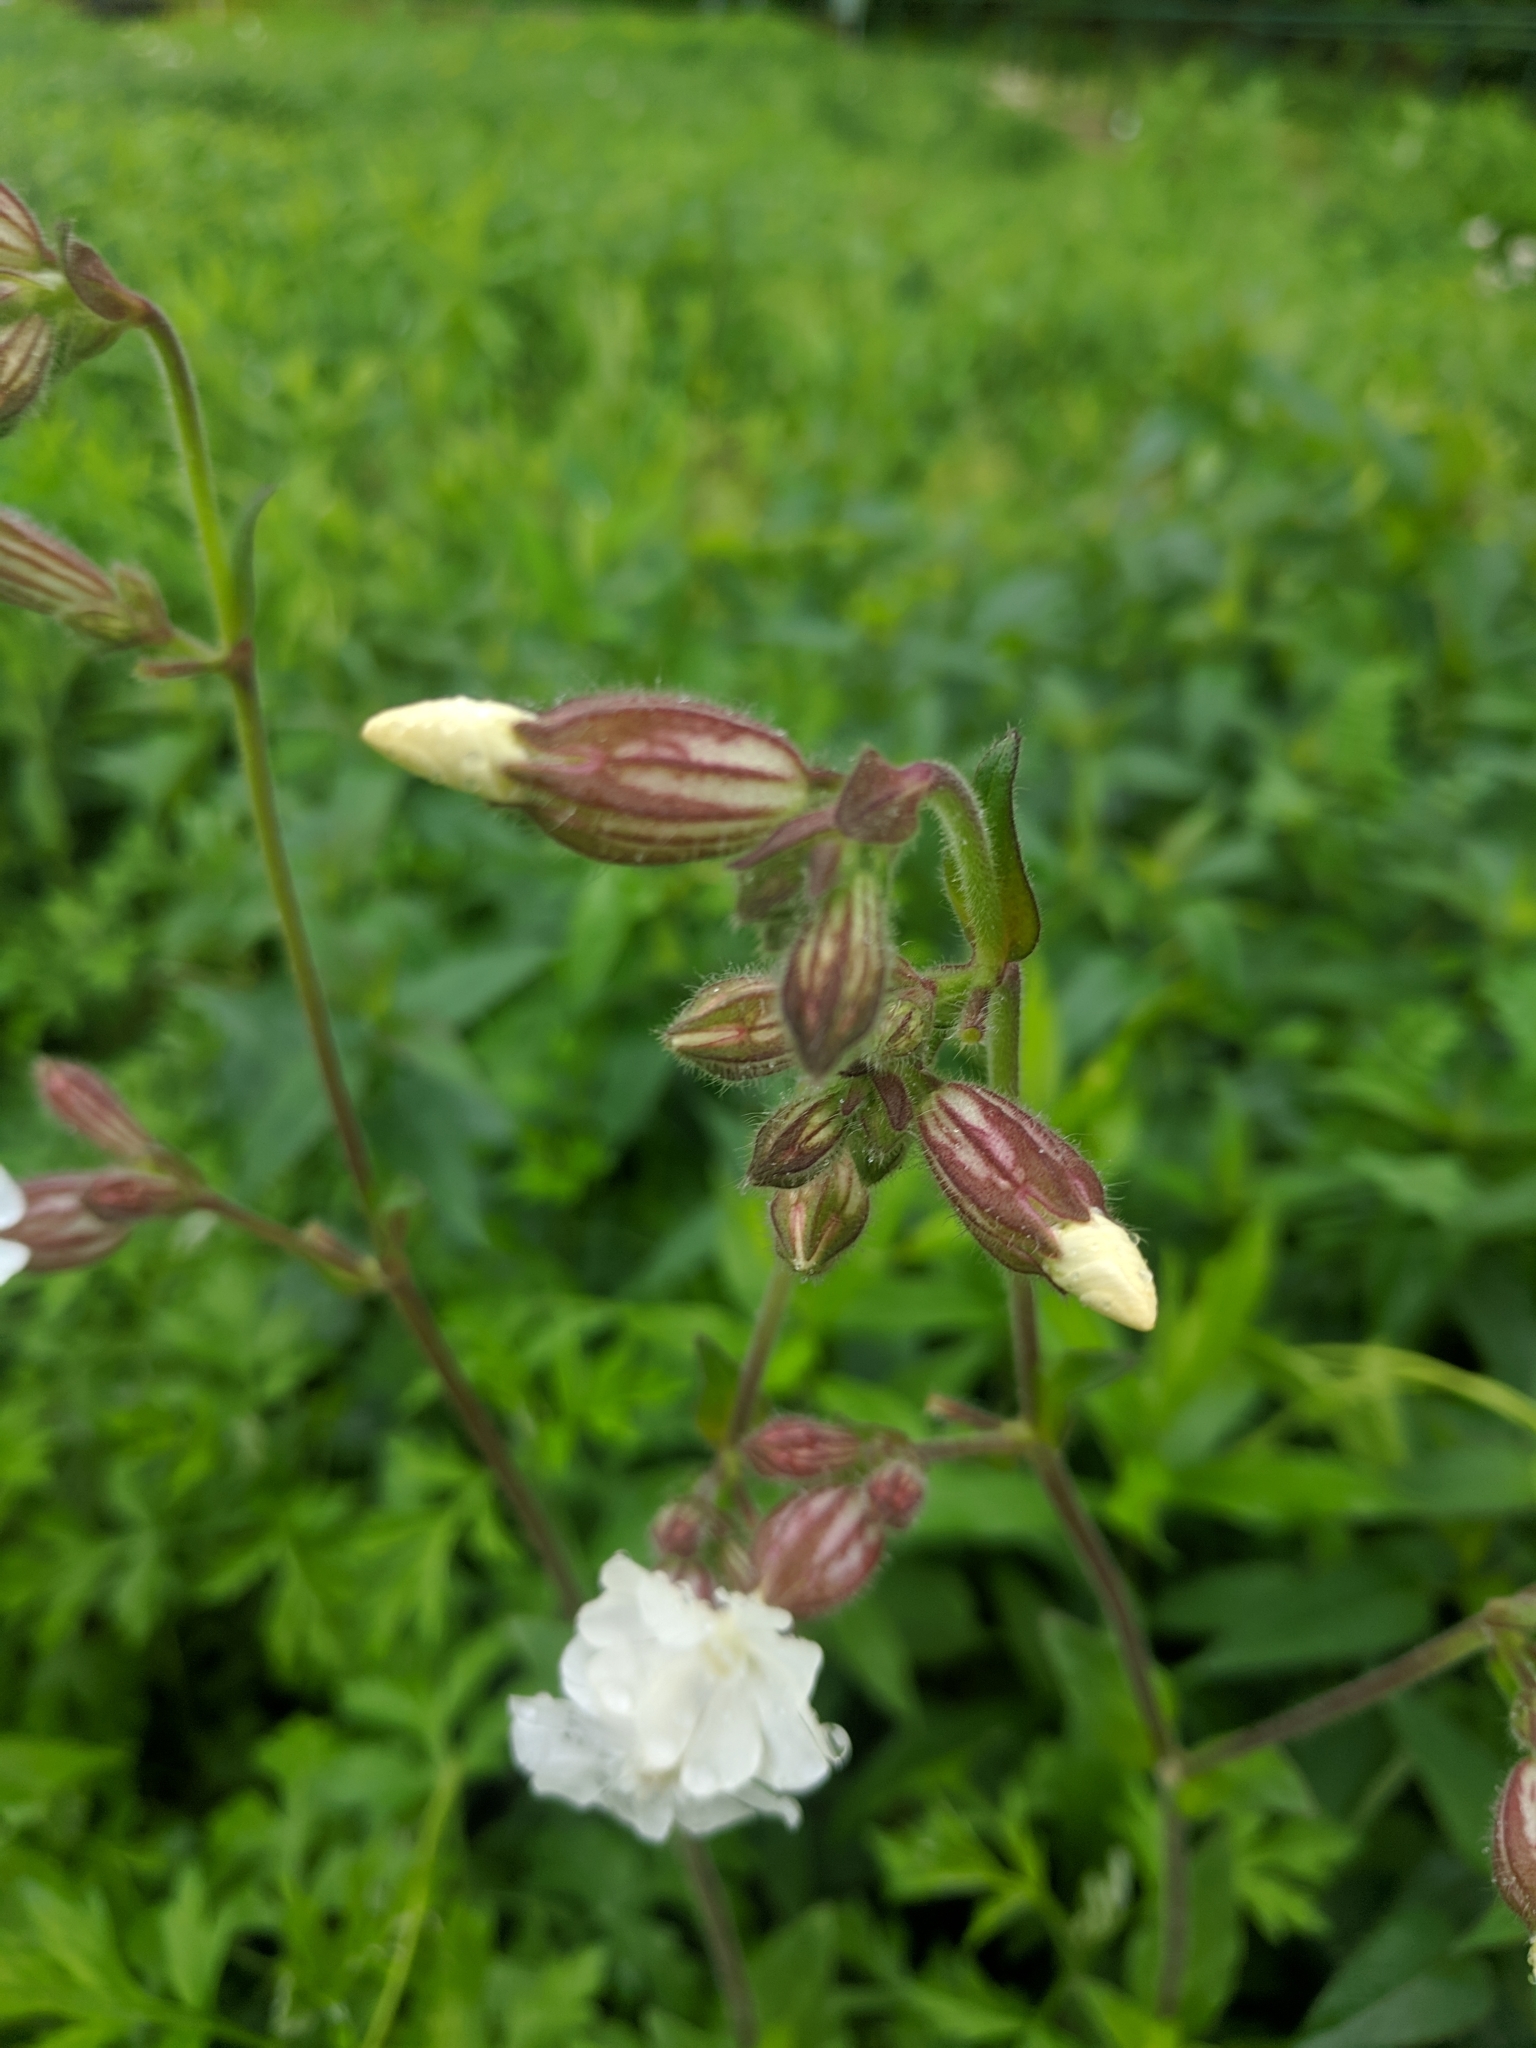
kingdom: Plantae
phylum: Tracheophyta
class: Magnoliopsida
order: Caryophyllales
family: Caryophyllaceae
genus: Silene
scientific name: Silene latifolia
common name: White campion
